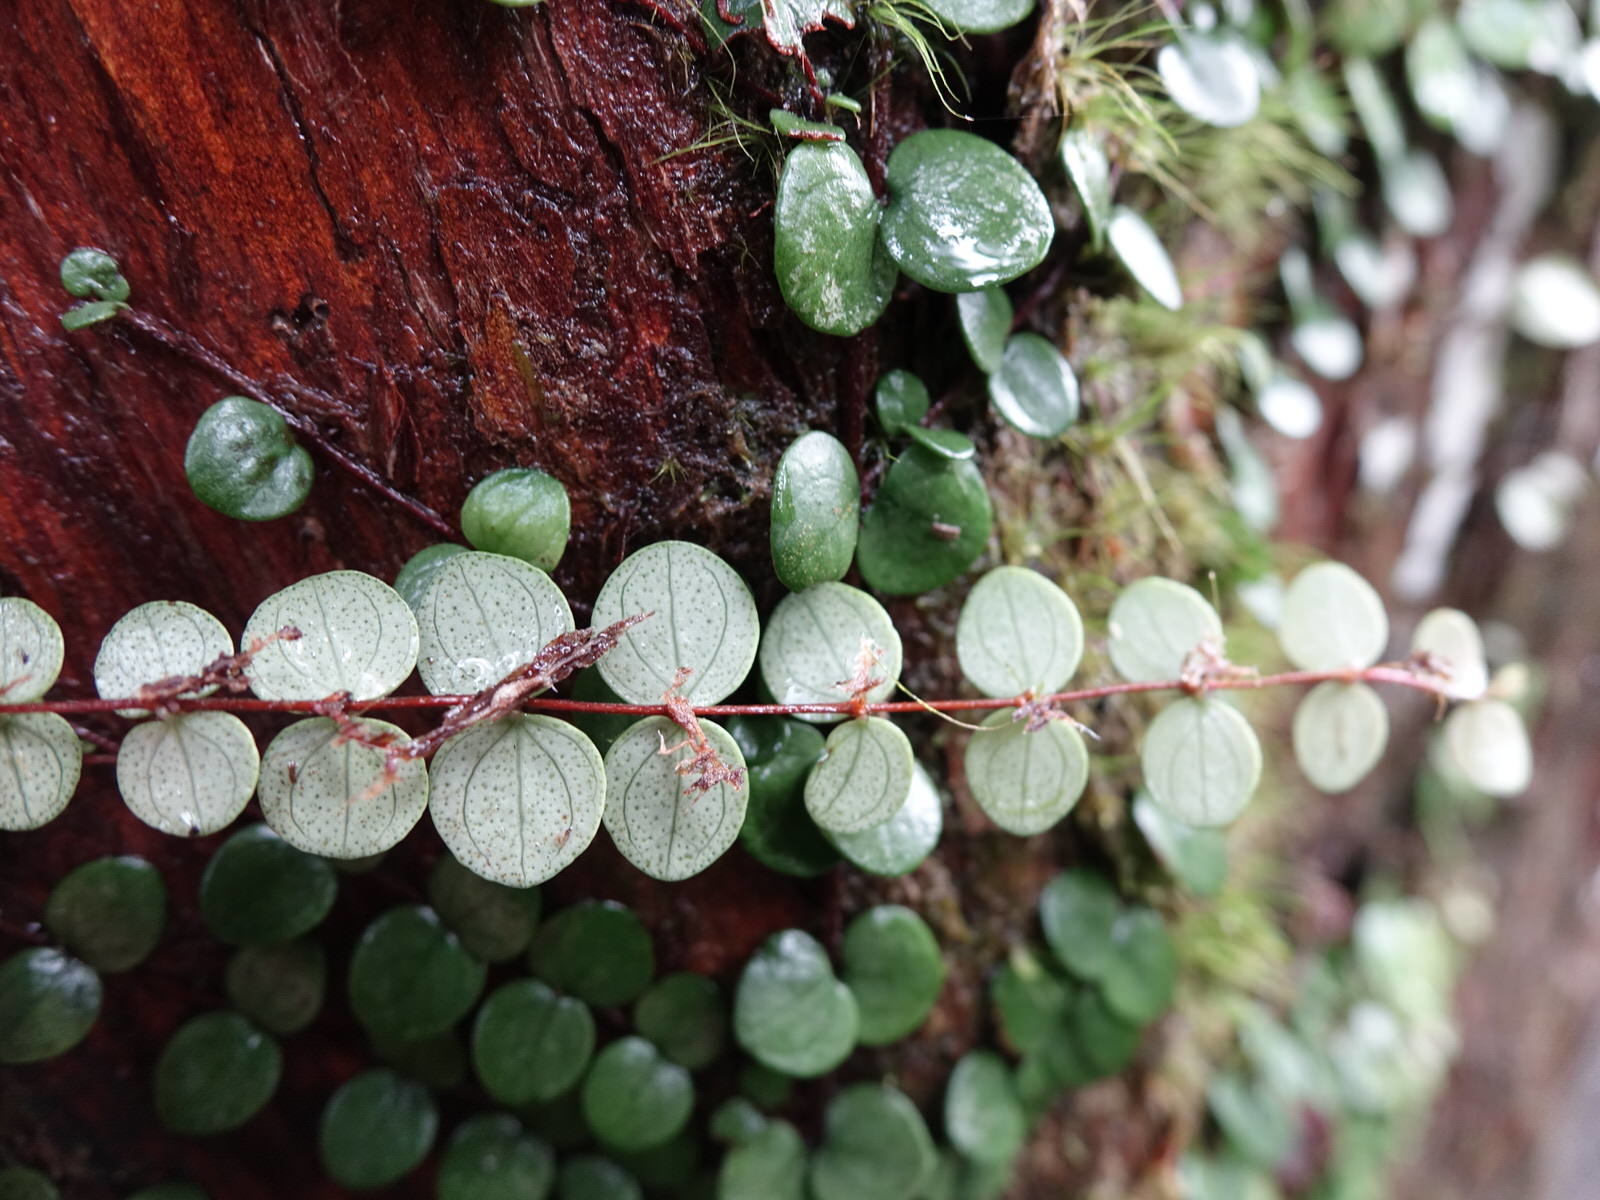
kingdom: Plantae
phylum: Tracheophyta
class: Magnoliopsida
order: Myrtales
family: Myrtaceae
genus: Metrosideros
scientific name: Metrosideros perforata
